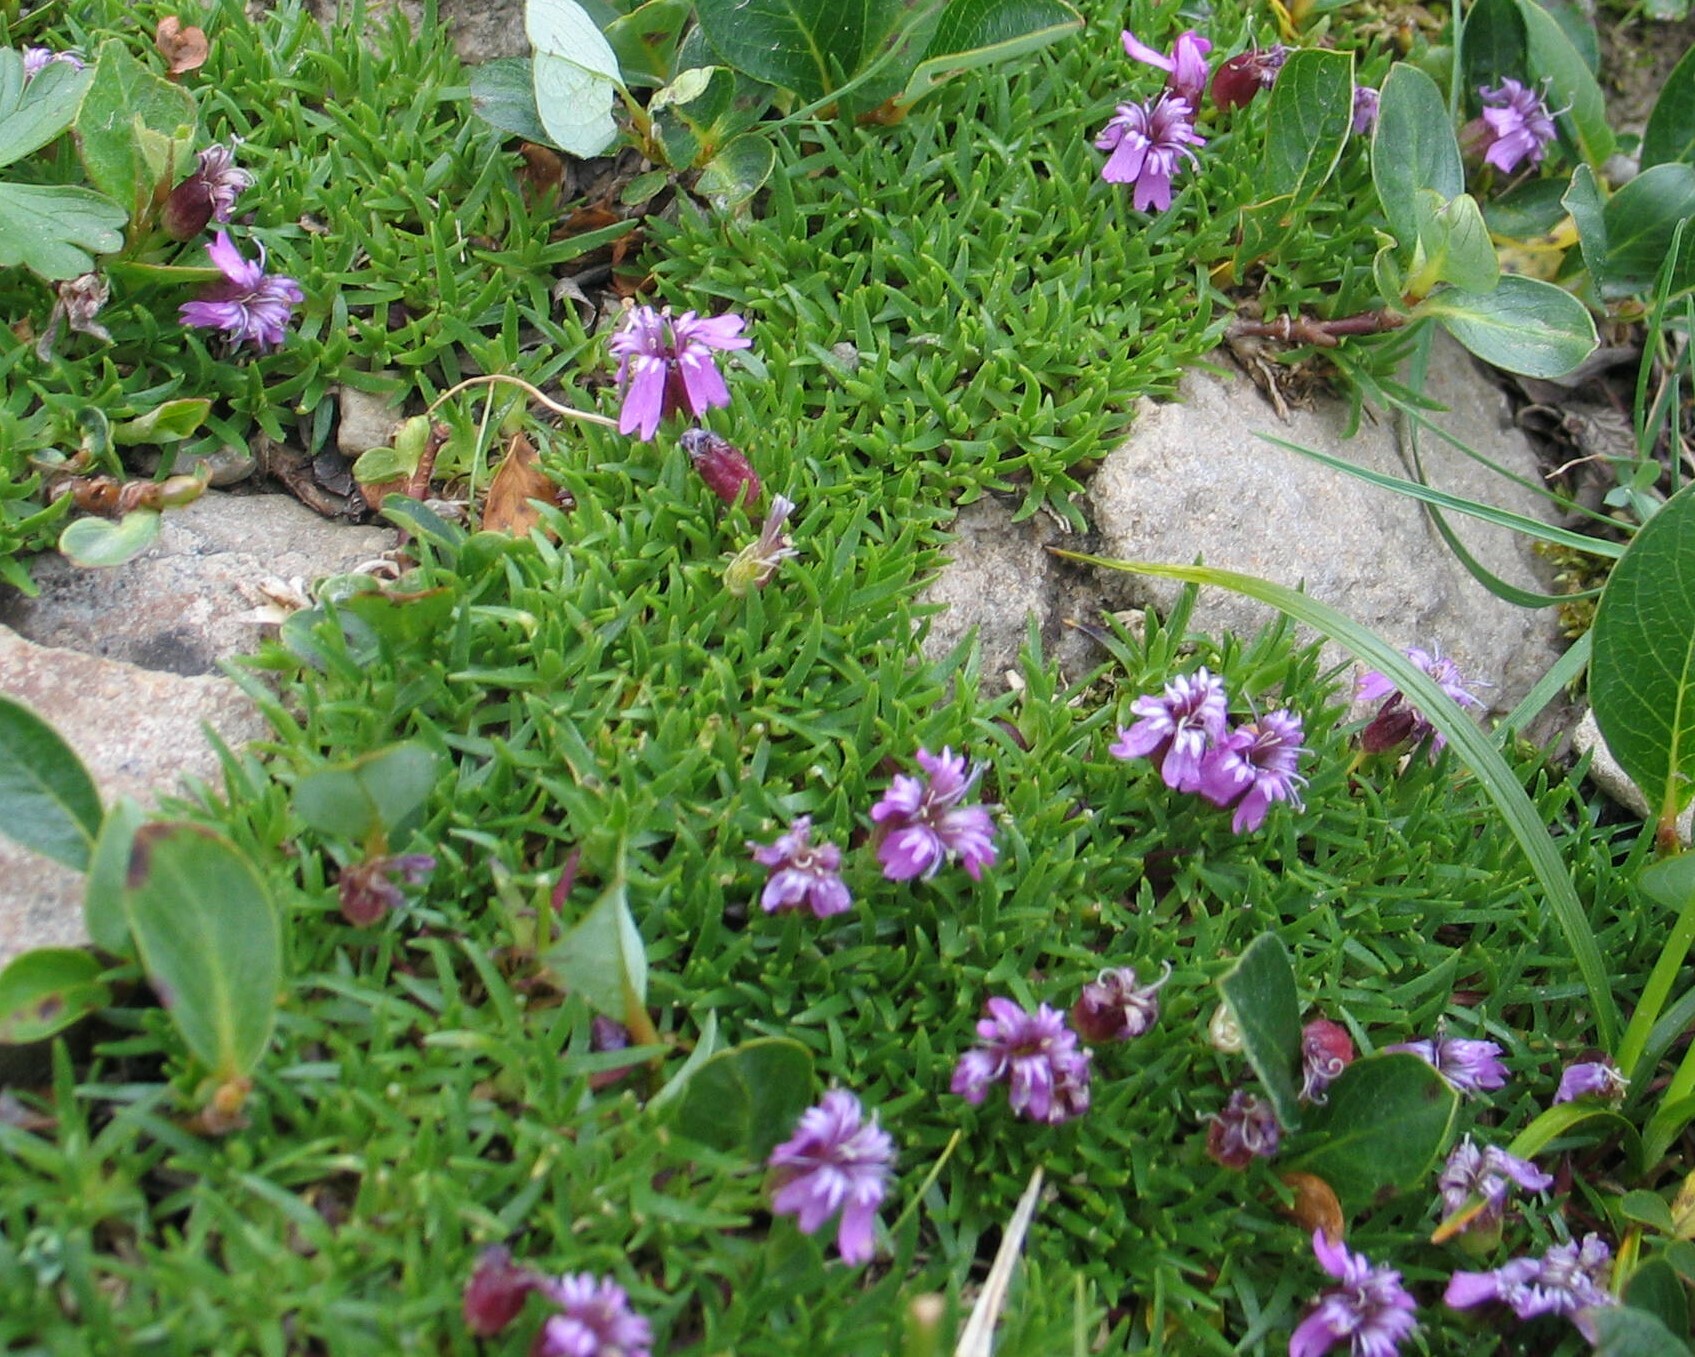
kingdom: Plantae
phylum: Tracheophyta
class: Magnoliopsida
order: Caryophyllales
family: Caryophyllaceae
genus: Silene
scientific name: Silene acaulis
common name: Moss campion
